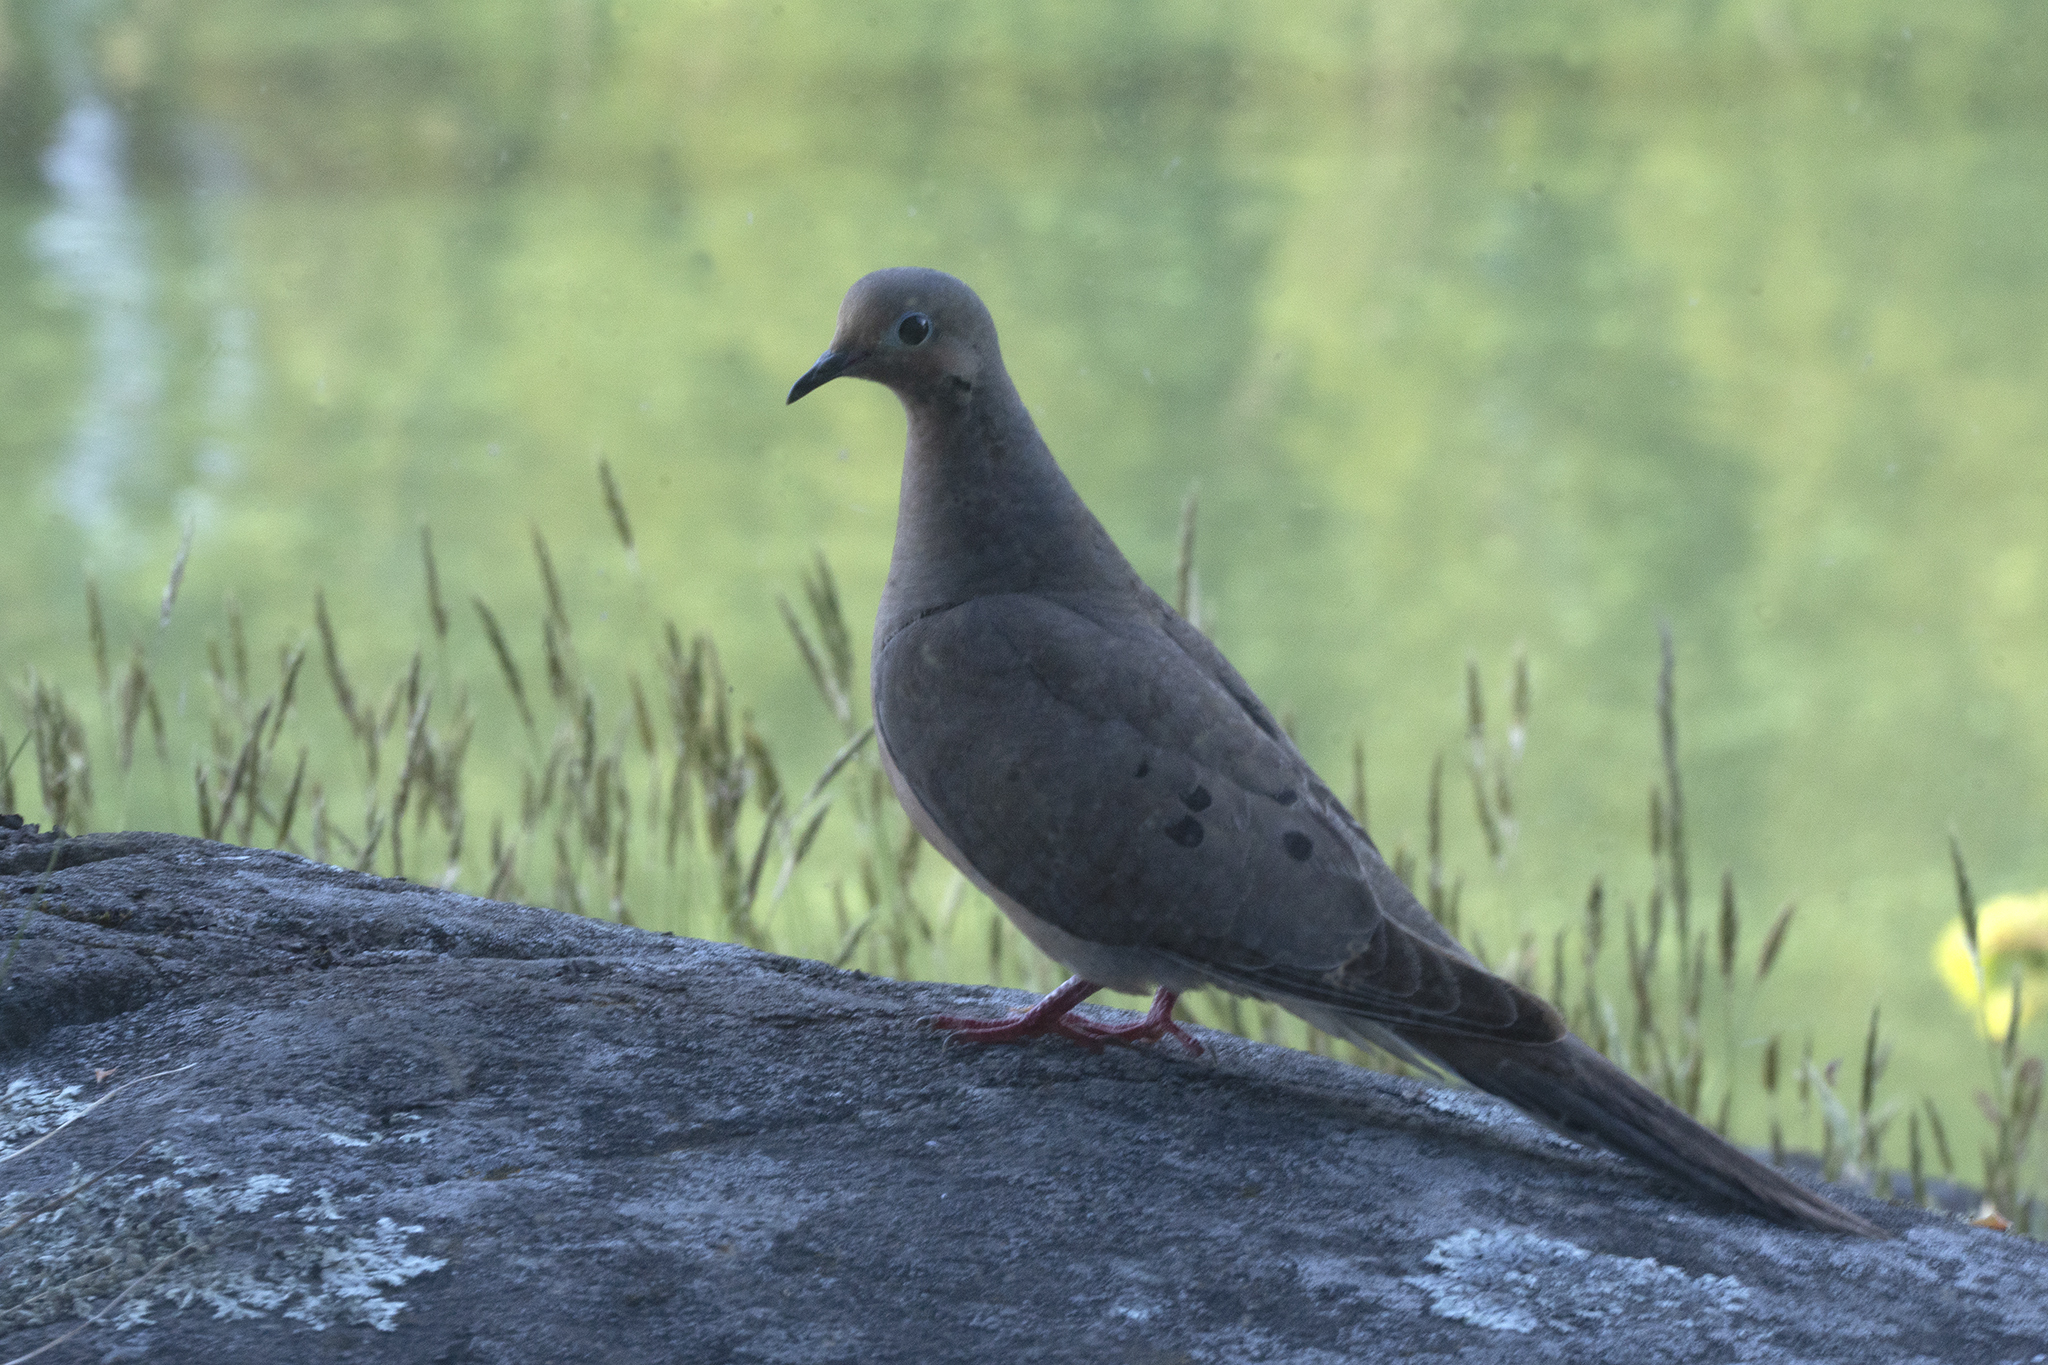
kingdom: Animalia
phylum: Chordata
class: Aves
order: Columbiformes
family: Columbidae
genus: Zenaida
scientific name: Zenaida macroura
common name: Mourning dove
